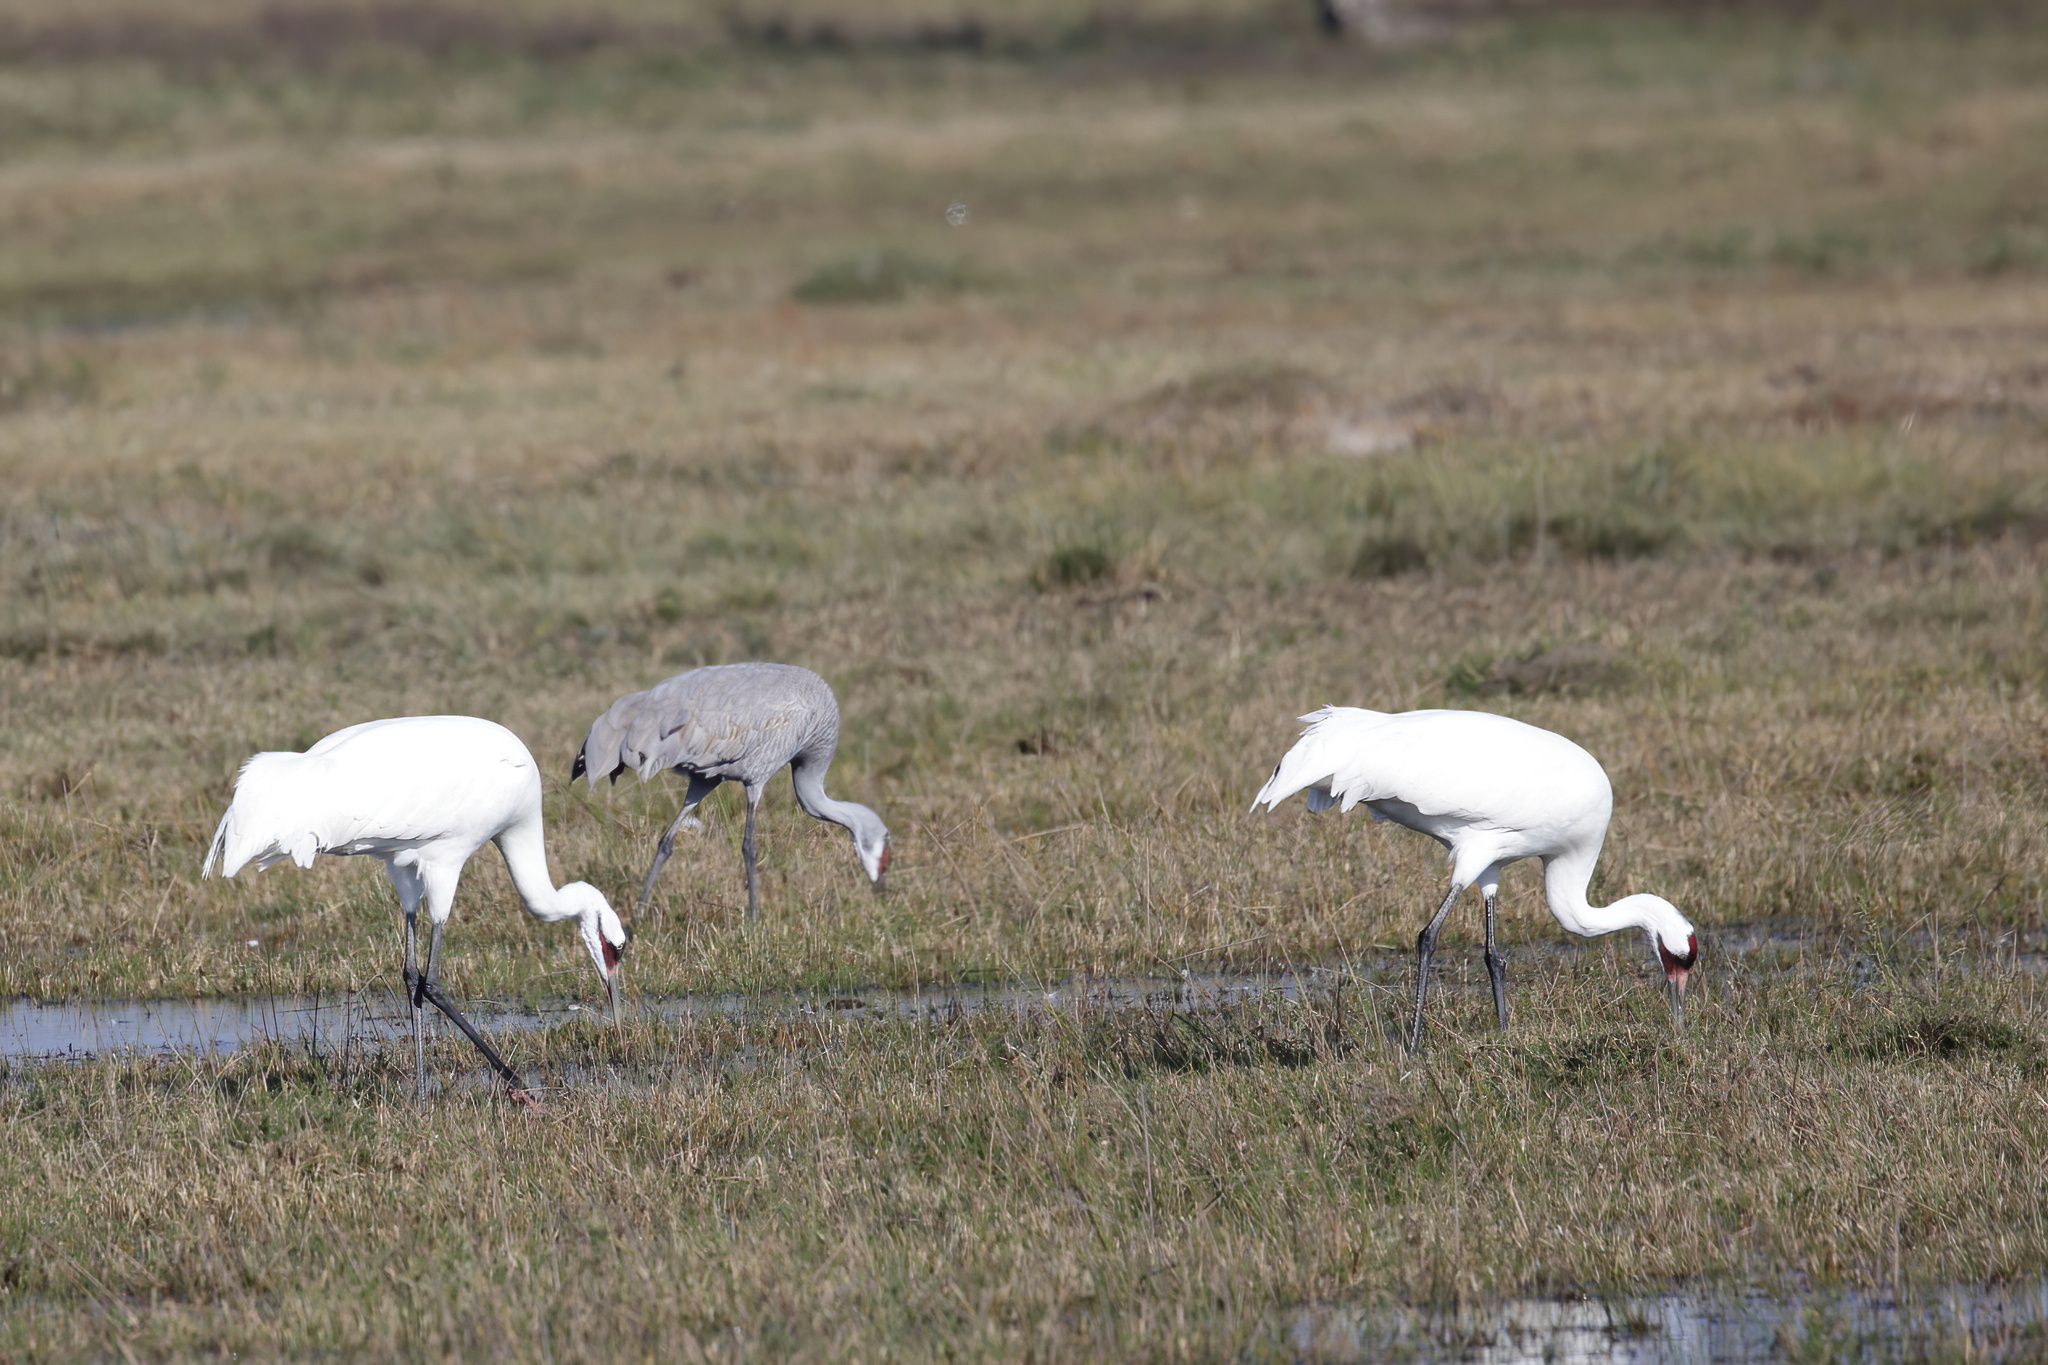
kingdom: Animalia
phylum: Chordata
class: Aves
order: Gruiformes
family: Gruidae
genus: Grus
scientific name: Grus americana
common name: Whooping crane
